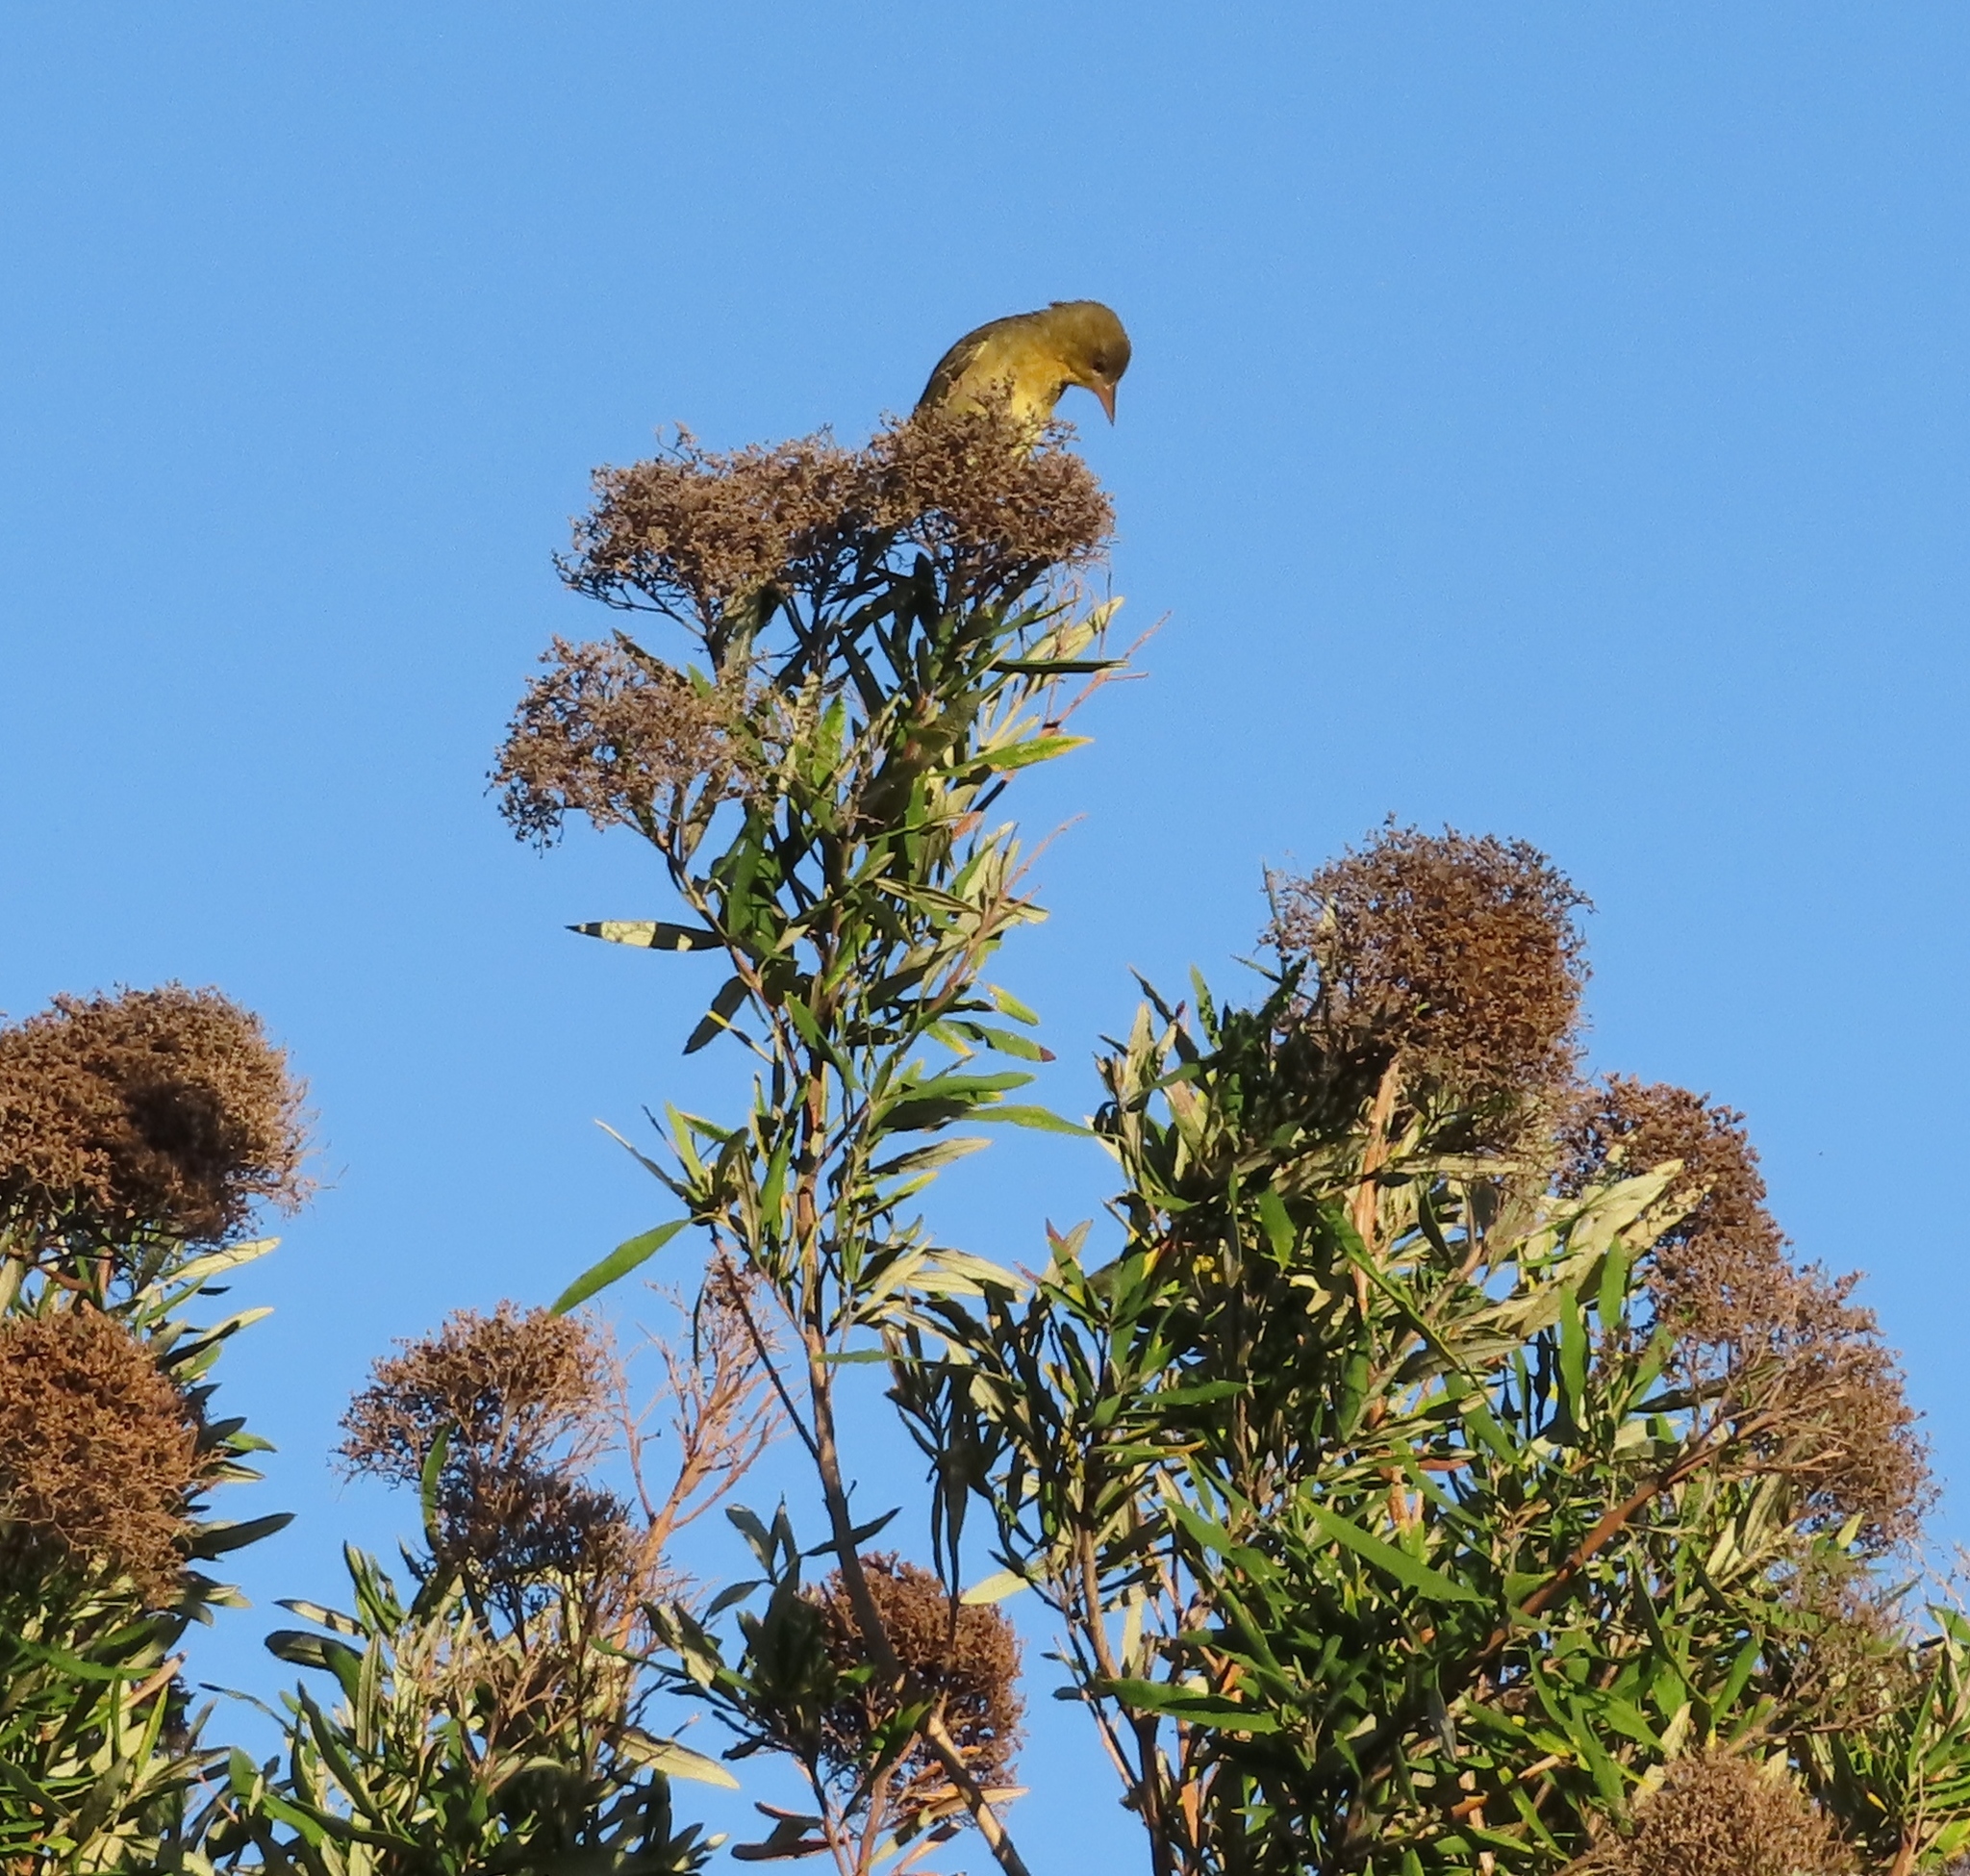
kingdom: Animalia
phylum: Chordata
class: Aves
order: Passeriformes
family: Ploceidae
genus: Ploceus
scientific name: Ploceus capensis
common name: Cape weaver
